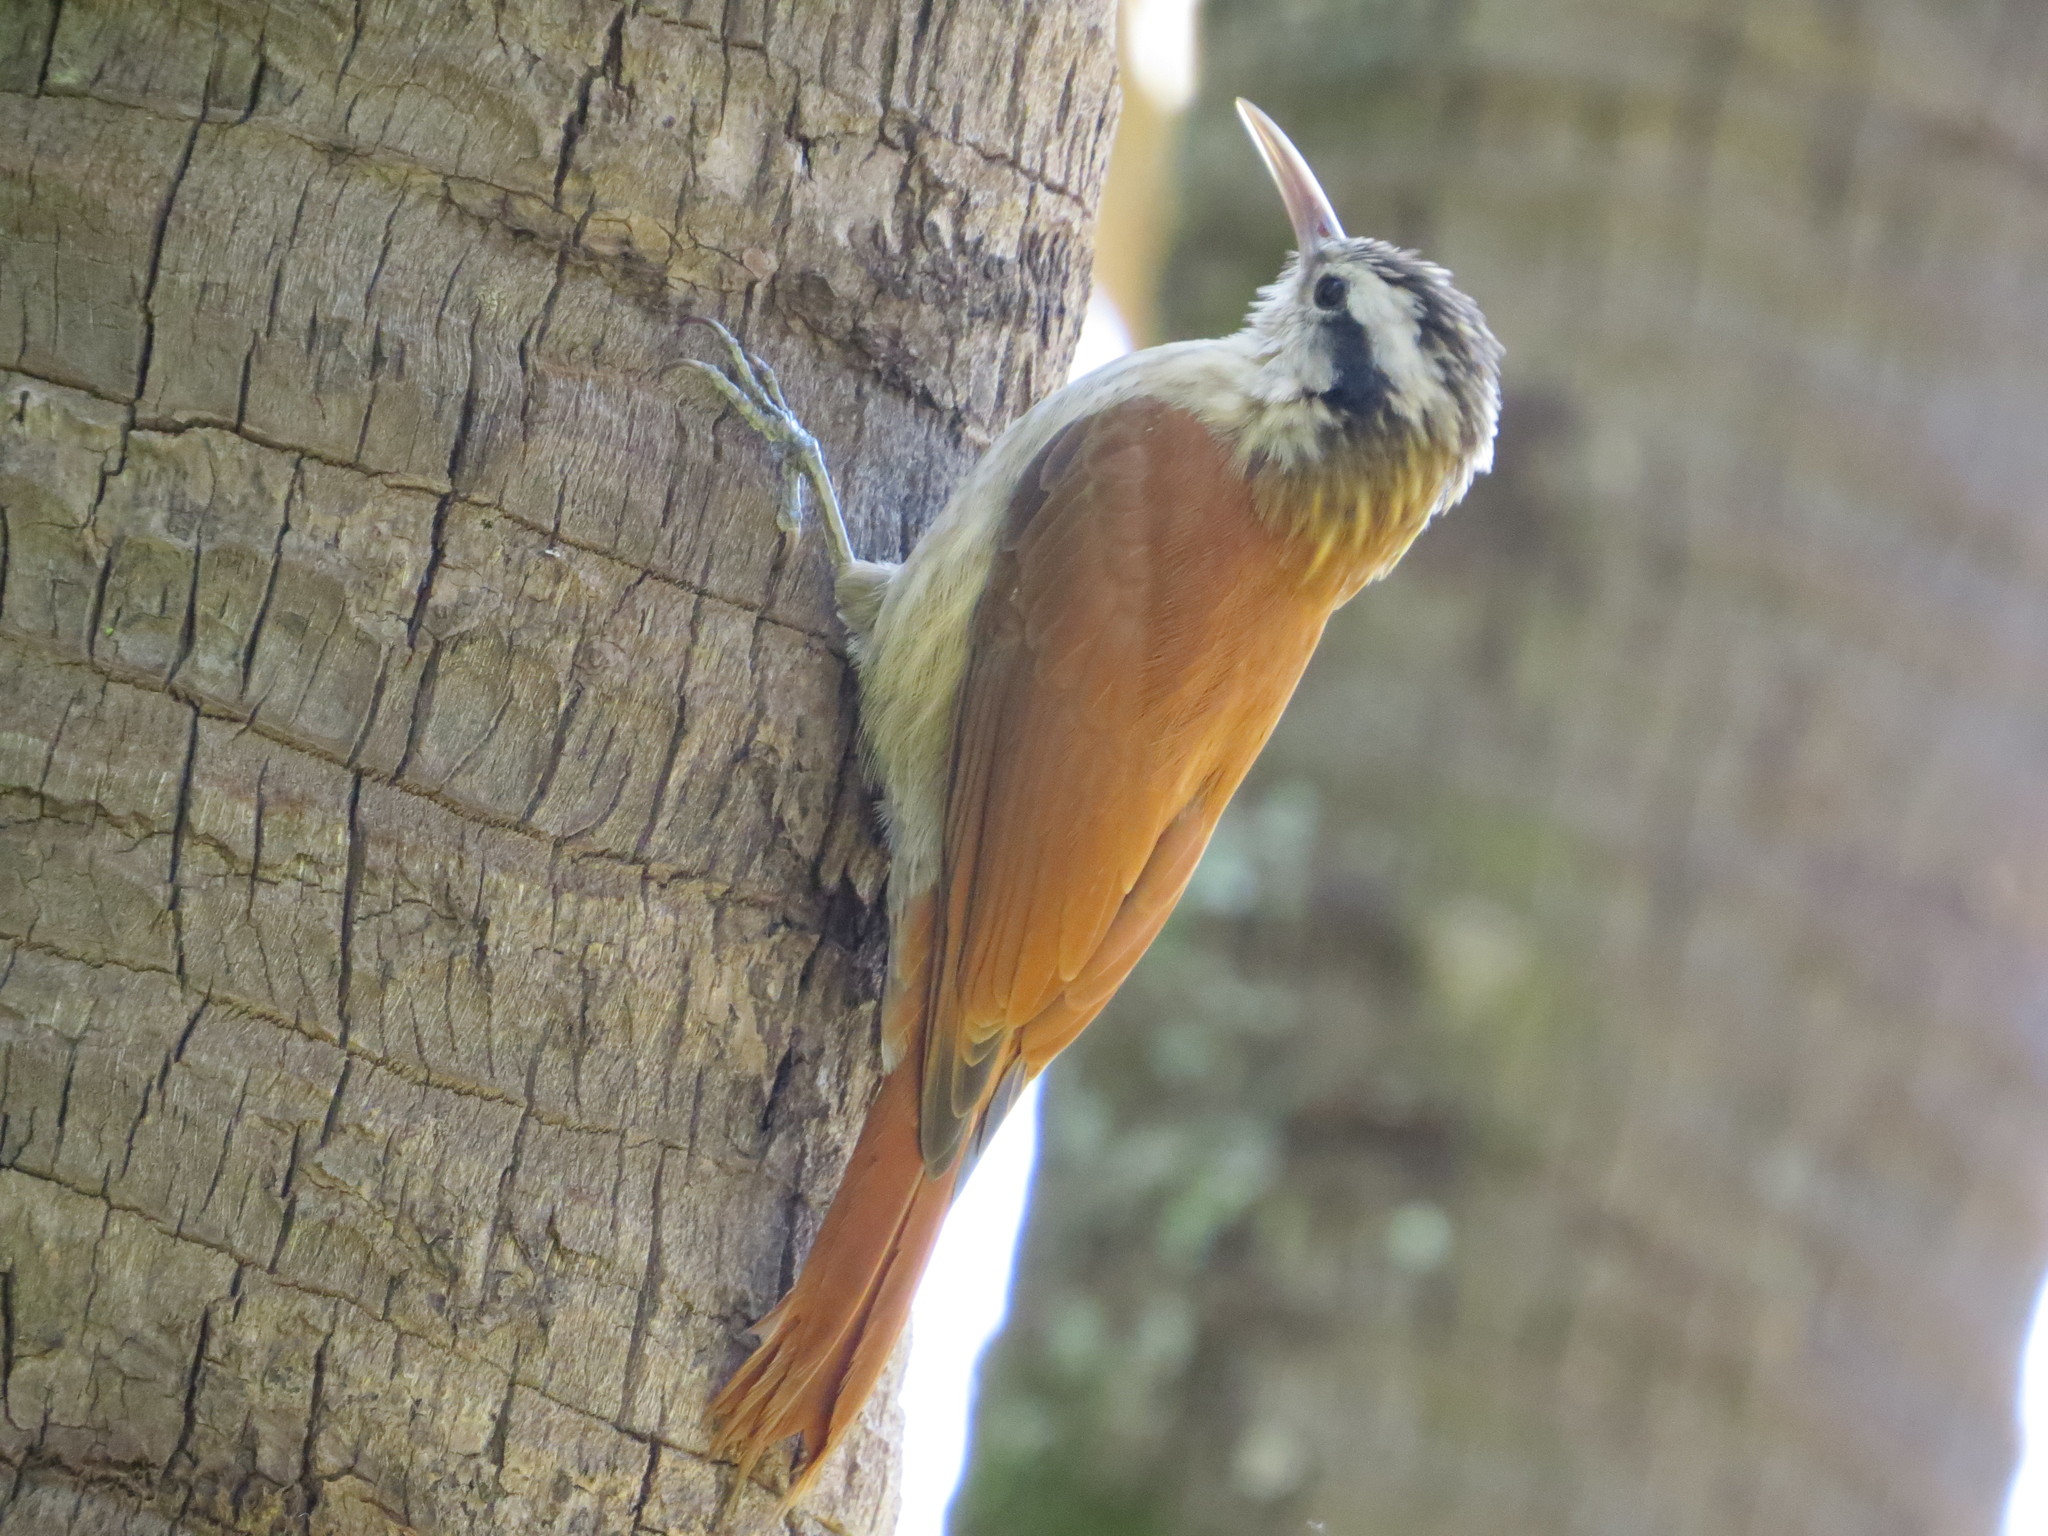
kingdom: Animalia
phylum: Chordata
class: Aves
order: Passeriformes
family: Furnariidae
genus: Lepidocolaptes
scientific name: Lepidocolaptes angustirostris
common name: Narrow-billed woodcreeper
